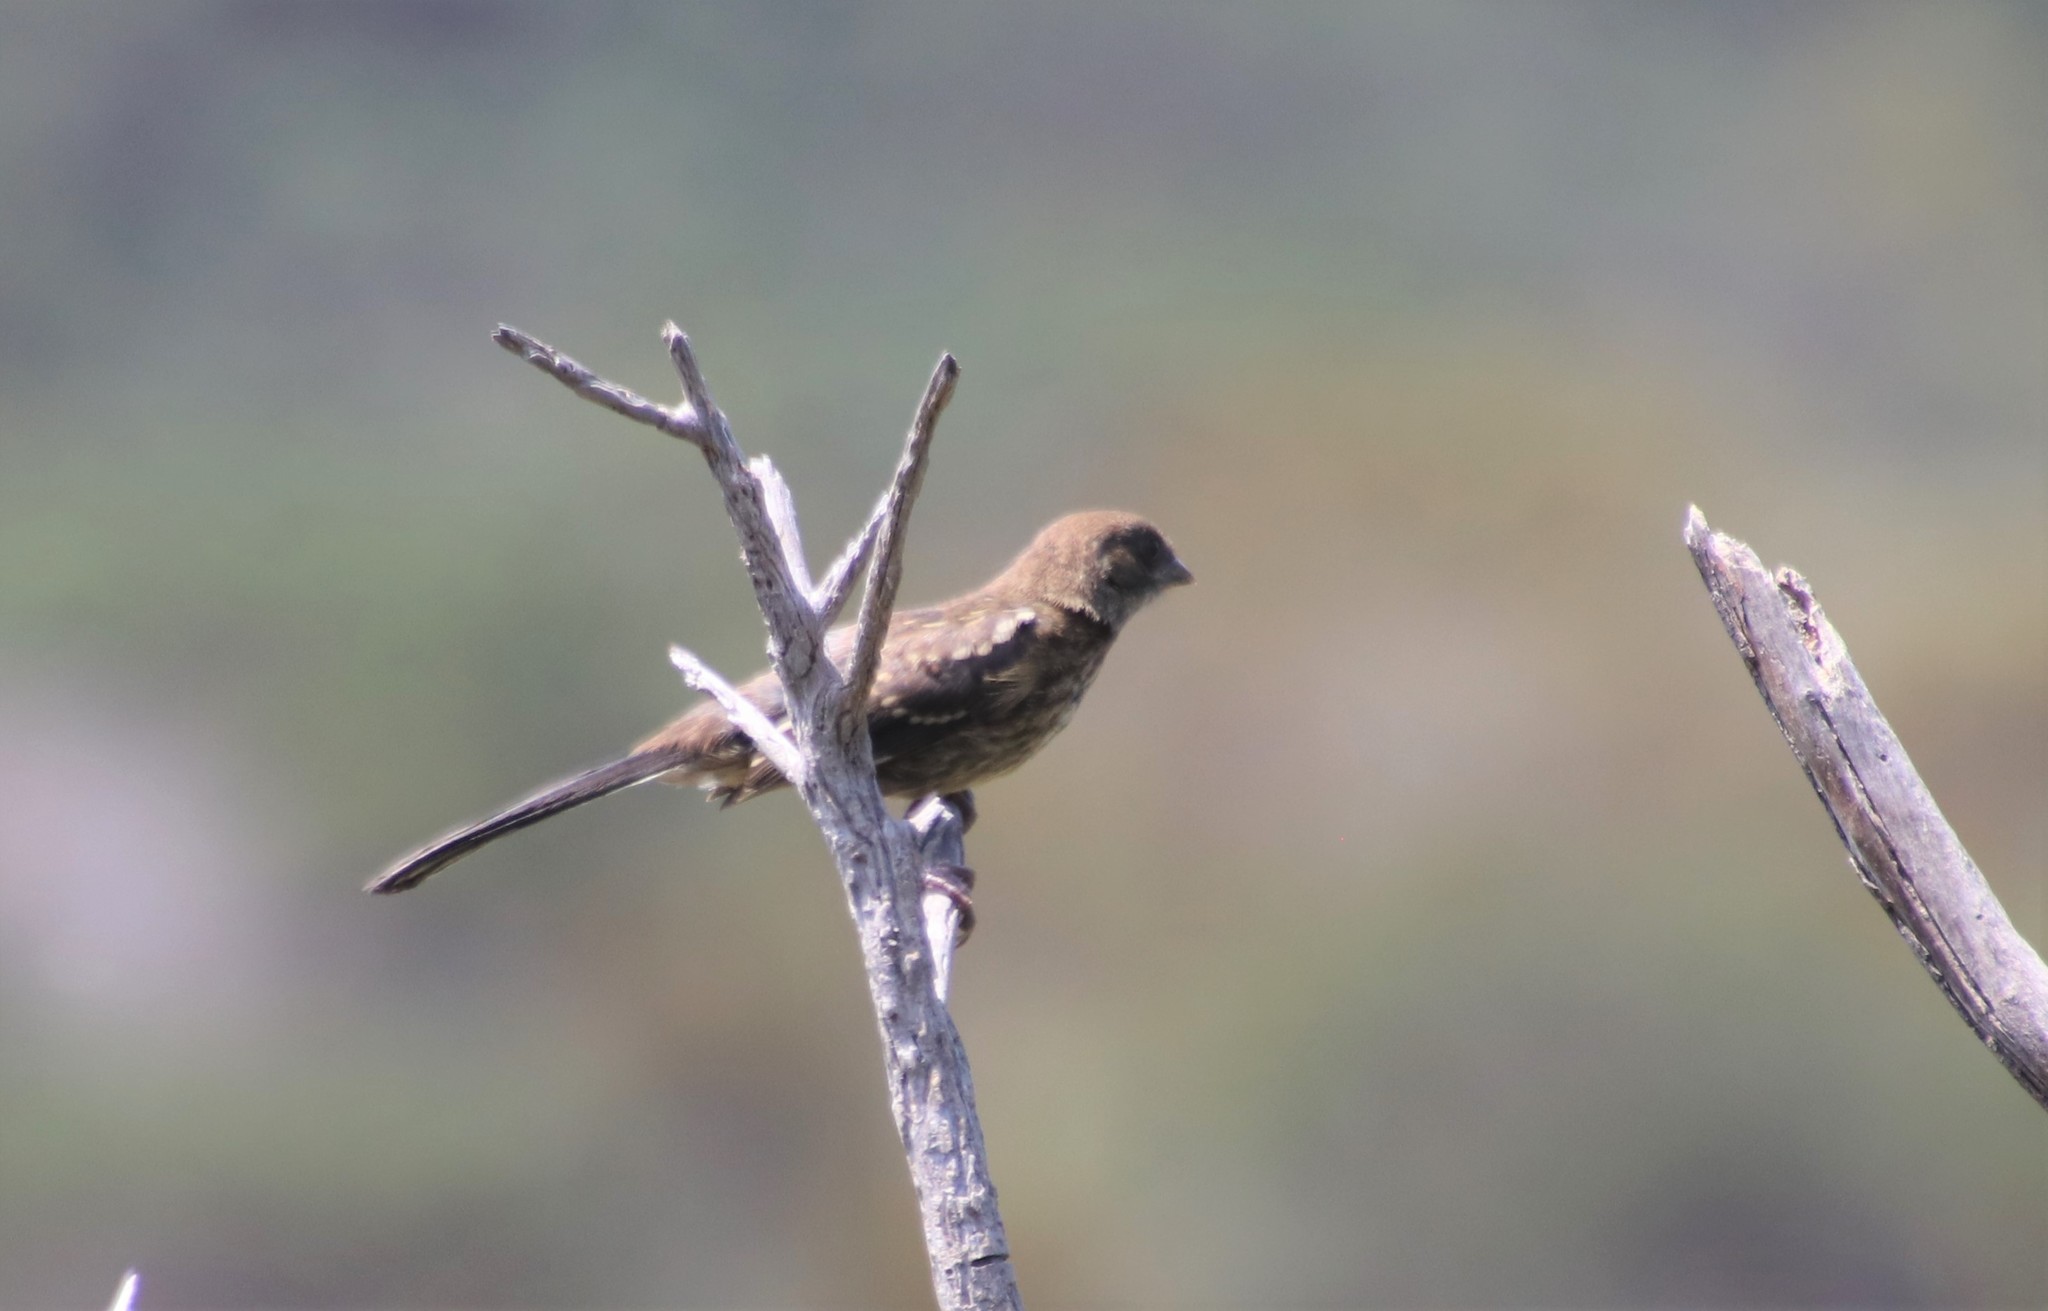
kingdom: Animalia
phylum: Chordata
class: Aves
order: Passeriformes
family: Passerellidae
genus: Melozone
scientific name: Melozone crissalis
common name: California towhee
